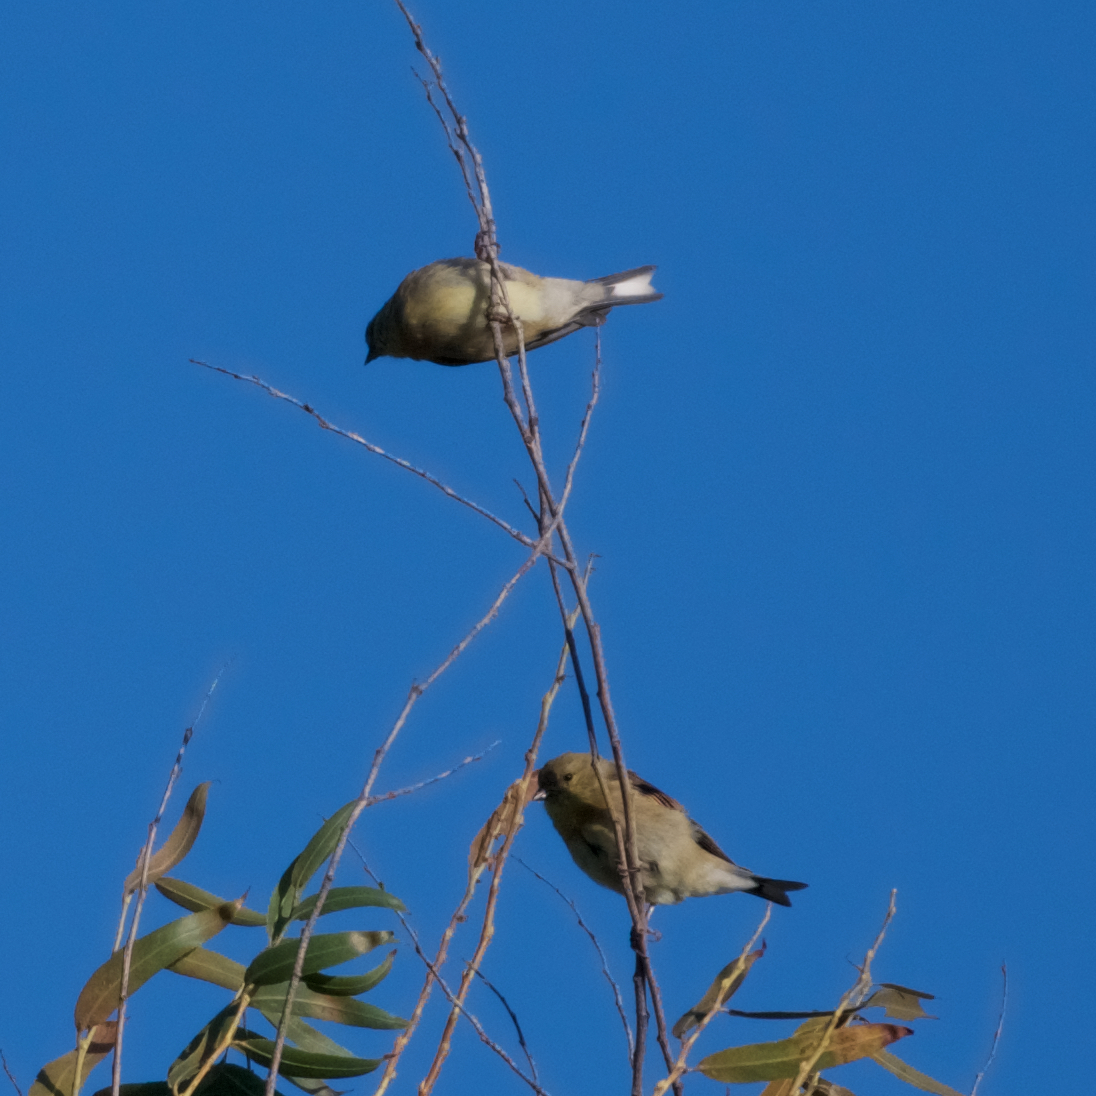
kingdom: Animalia
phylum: Chordata
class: Aves
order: Passeriformes
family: Fringillidae
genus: Spinus
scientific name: Spinus psaltria
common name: Lesser goldfinch
